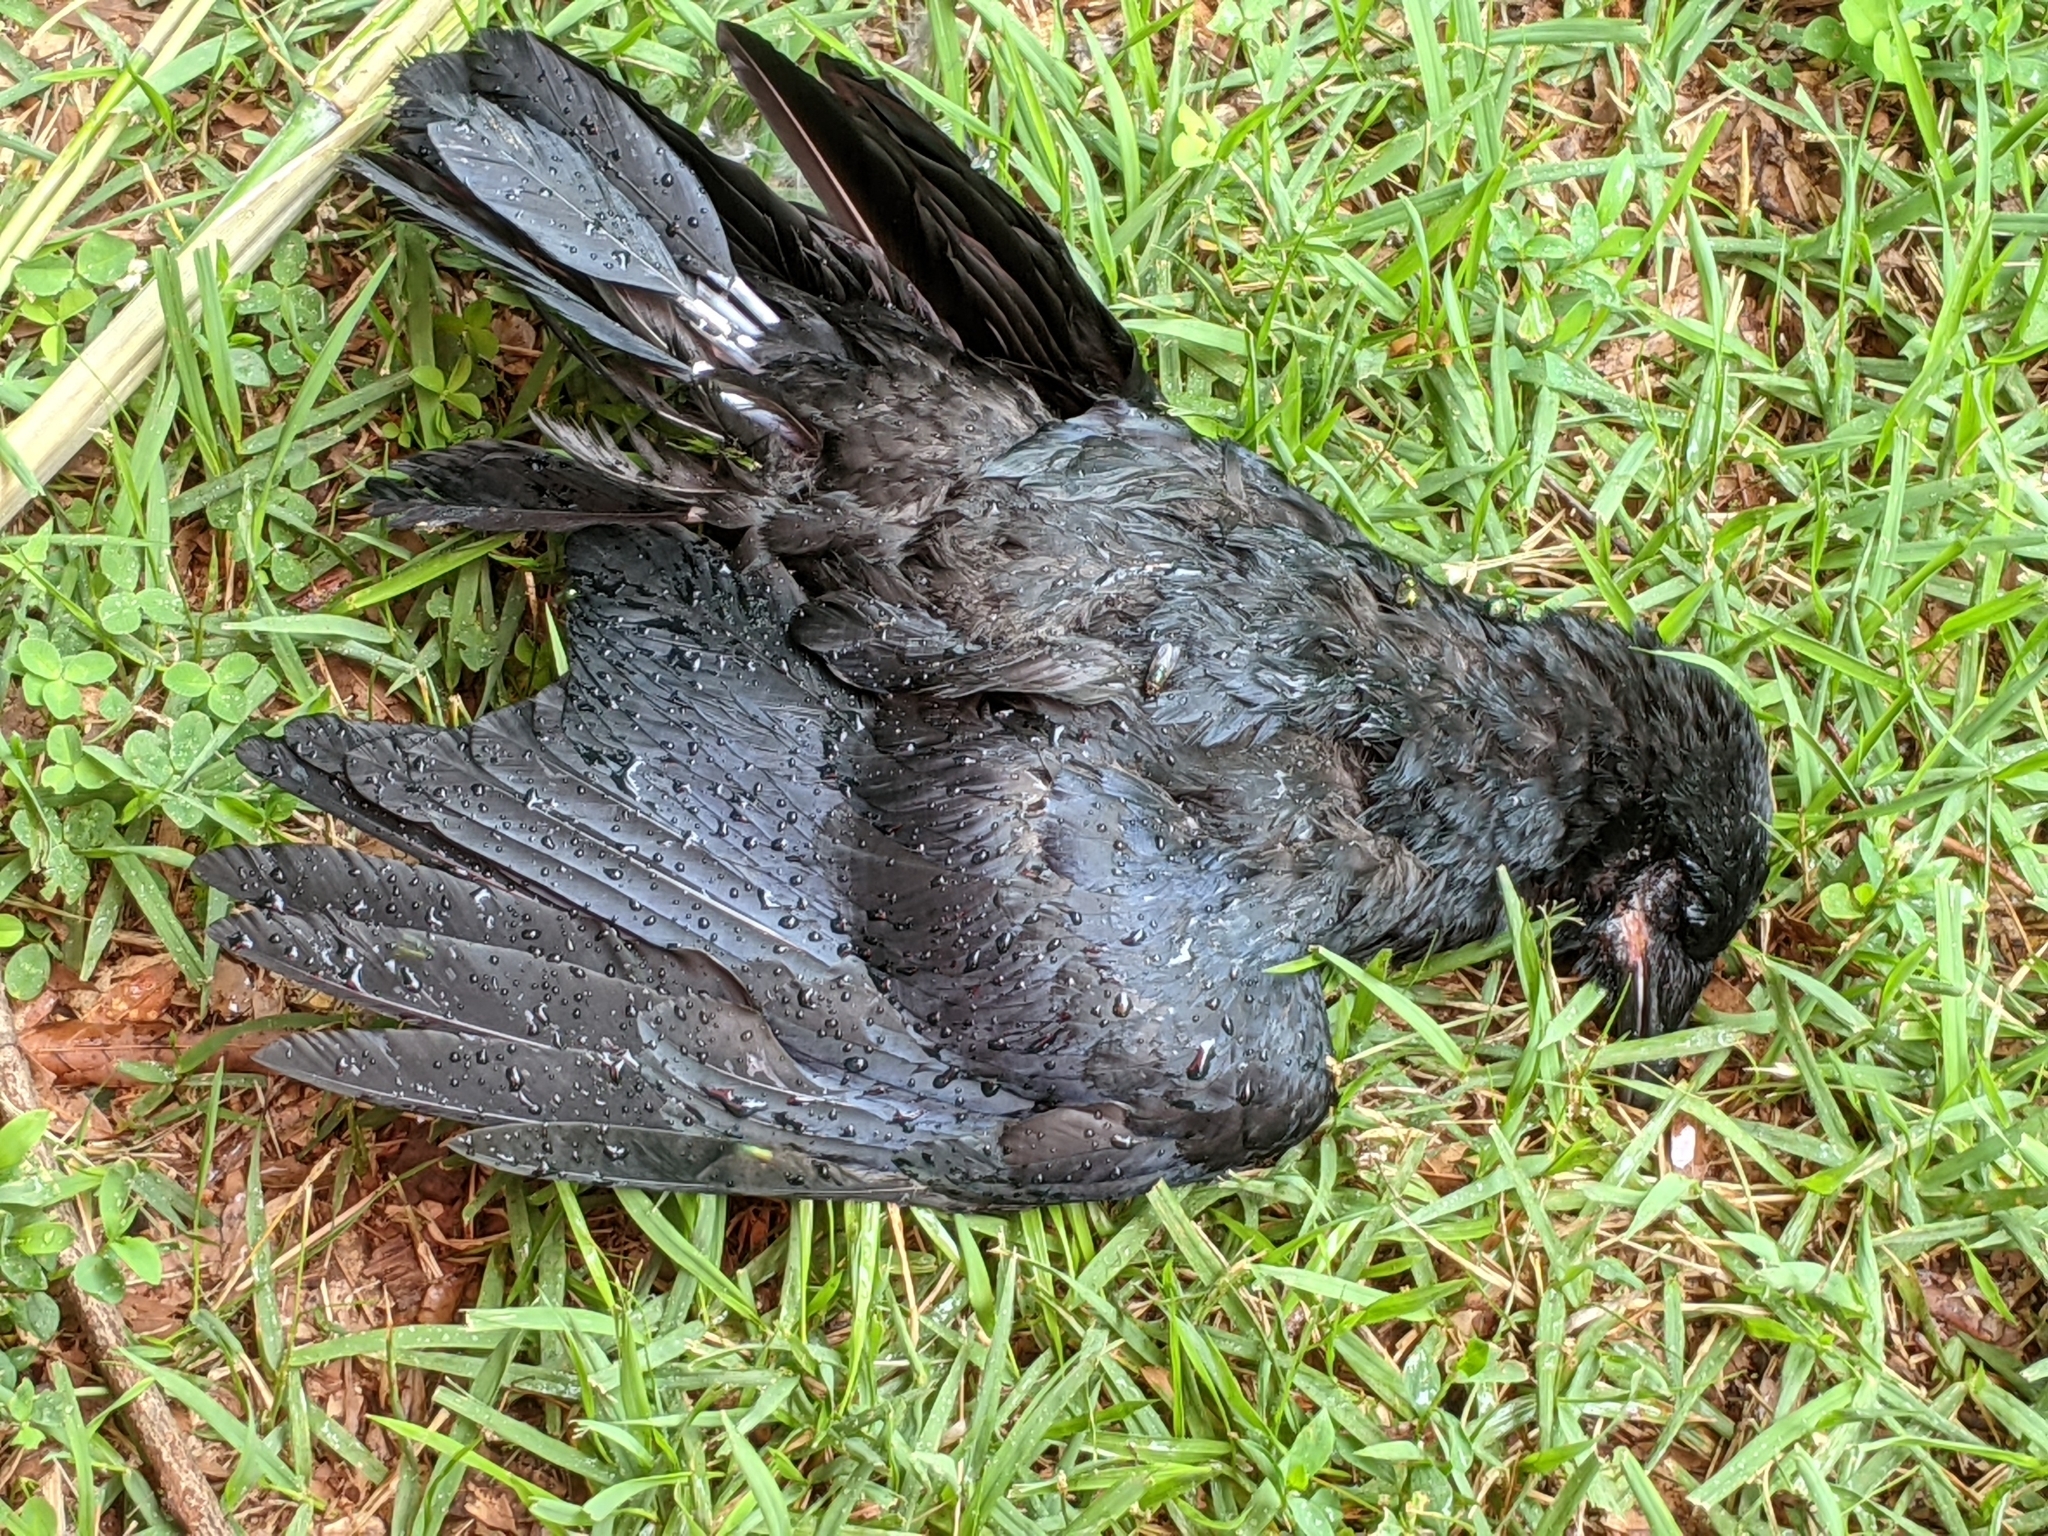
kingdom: Animalia
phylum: Chordata
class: Aves
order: Passeriformes
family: Corvidae
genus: Corvus
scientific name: Corvus
